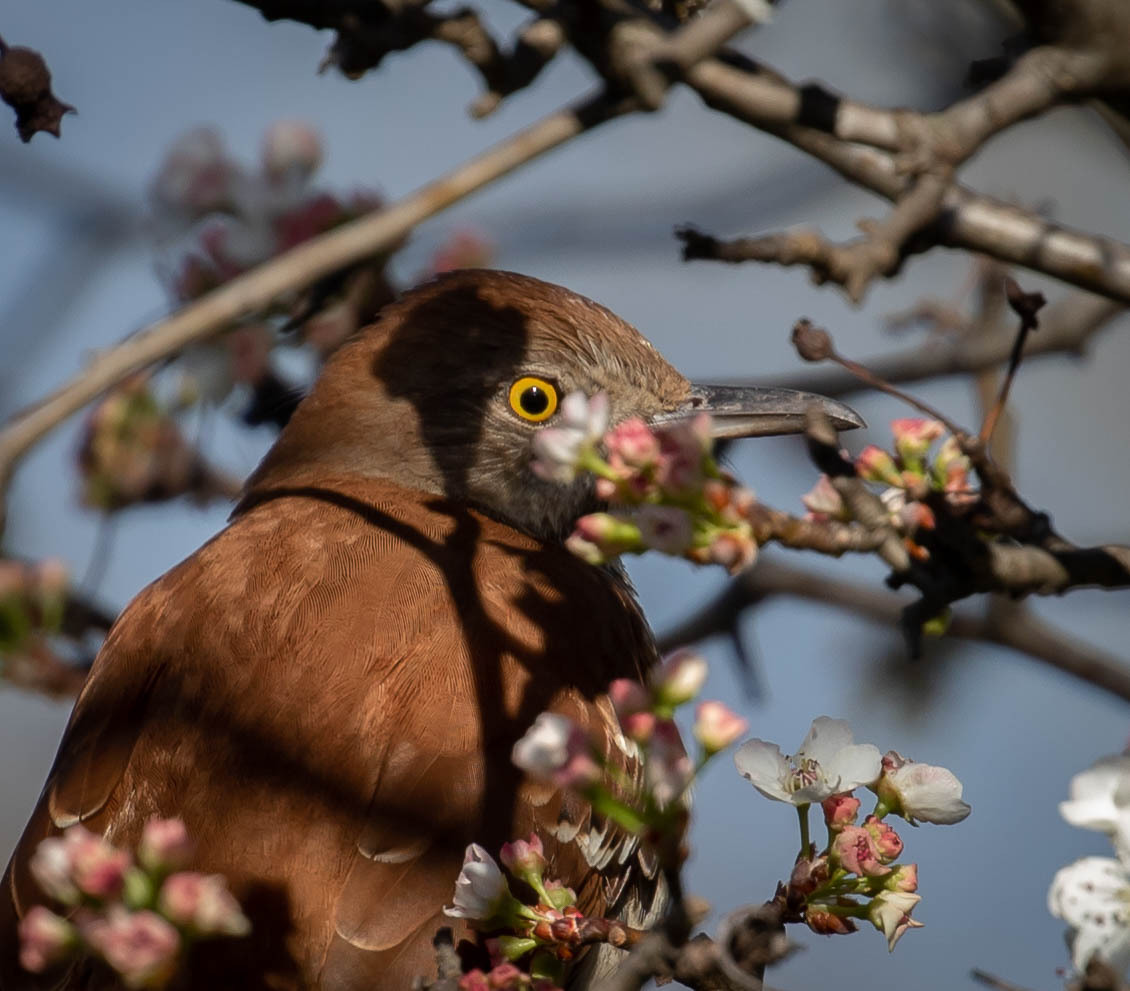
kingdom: Animalia
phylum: Chordata
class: Aves
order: Passeriformes
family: Mimidae
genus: Toxostoma
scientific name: Toxostoma rufum
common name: Brown thrasher
